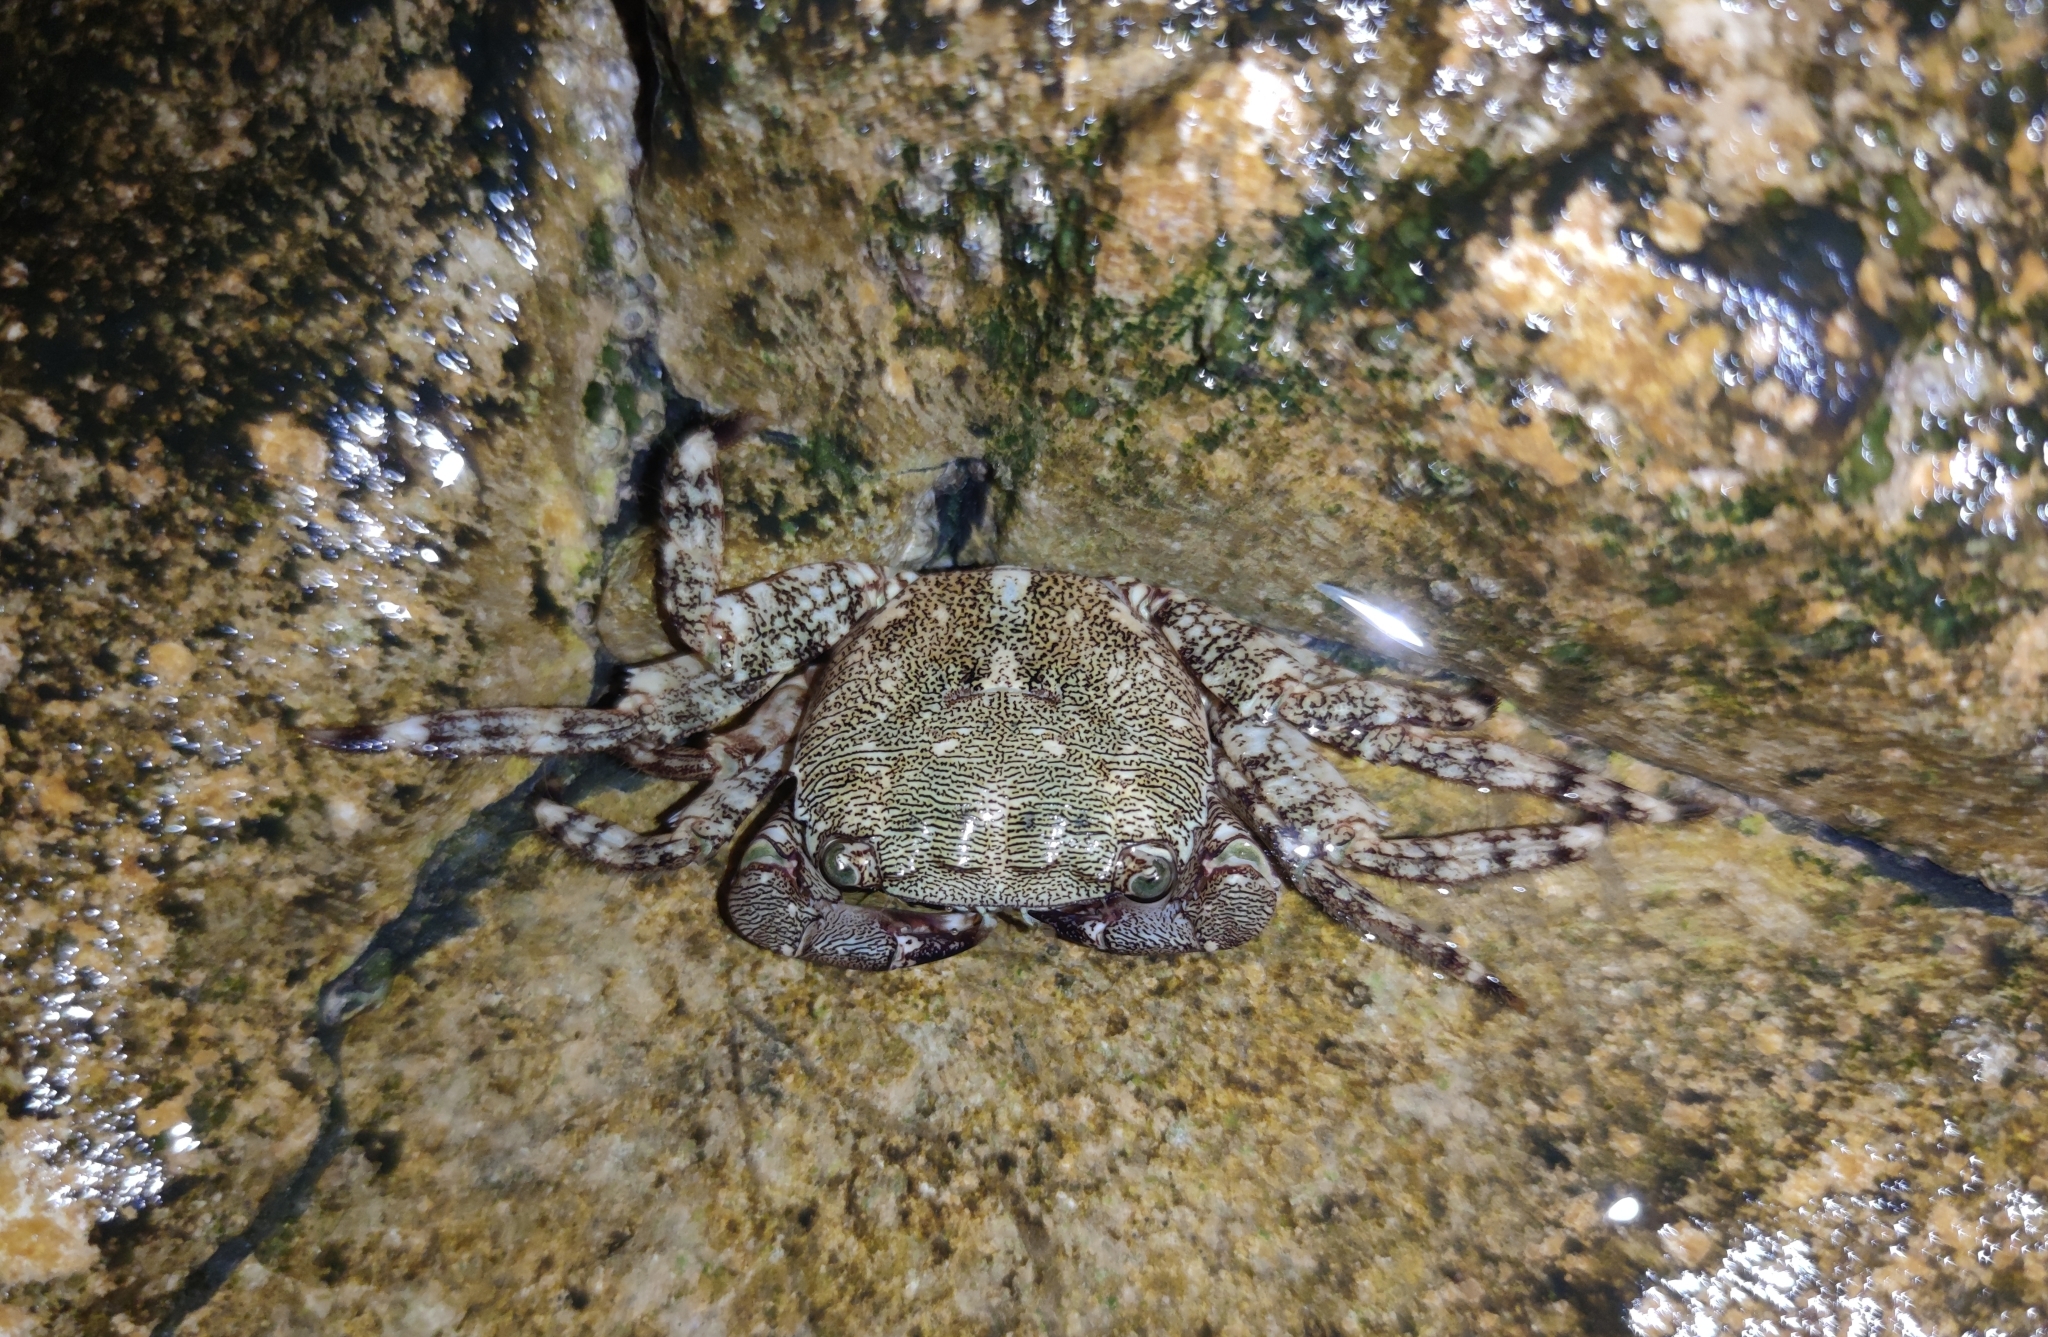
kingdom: Animalia
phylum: Arthropoda
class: Malacostraca
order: Decapoda
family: Grapsidae
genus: Pachygrapsus
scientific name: Pachygrapsus marmoratus
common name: Marbled rock crab
